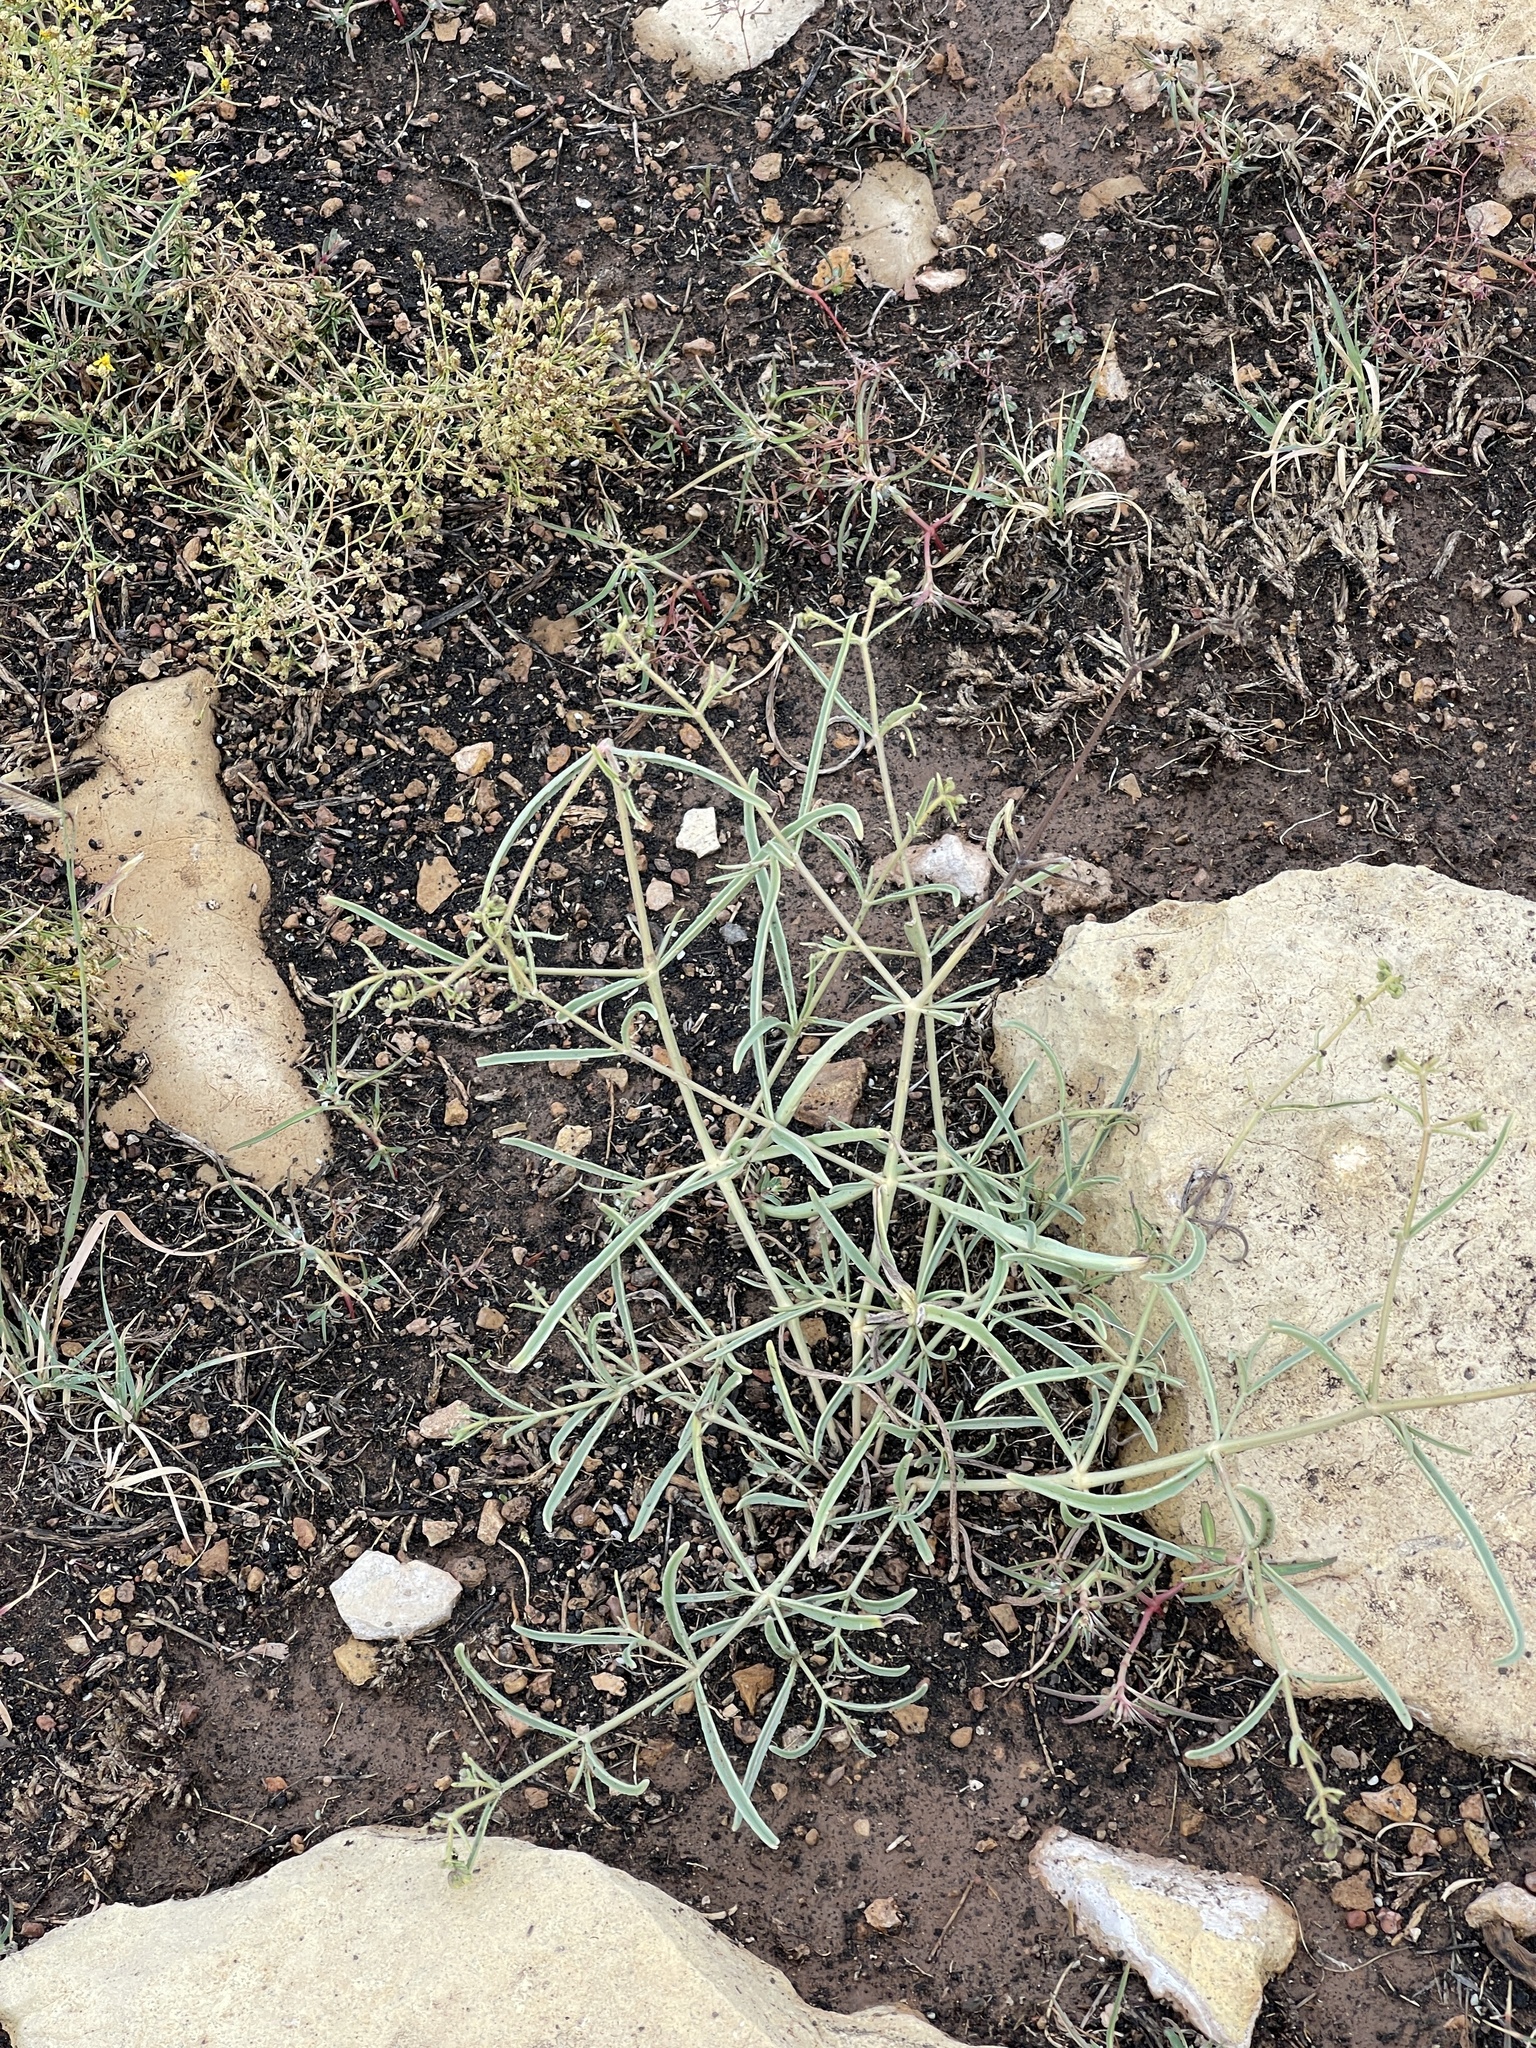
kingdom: Plantae
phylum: Tracheophyta
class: Magnoliopsida
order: Caryophyllales
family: Nyctaginaceae
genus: Mirabilis
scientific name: Mirabilis linearis
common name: Linear-leaved four-o'clock
